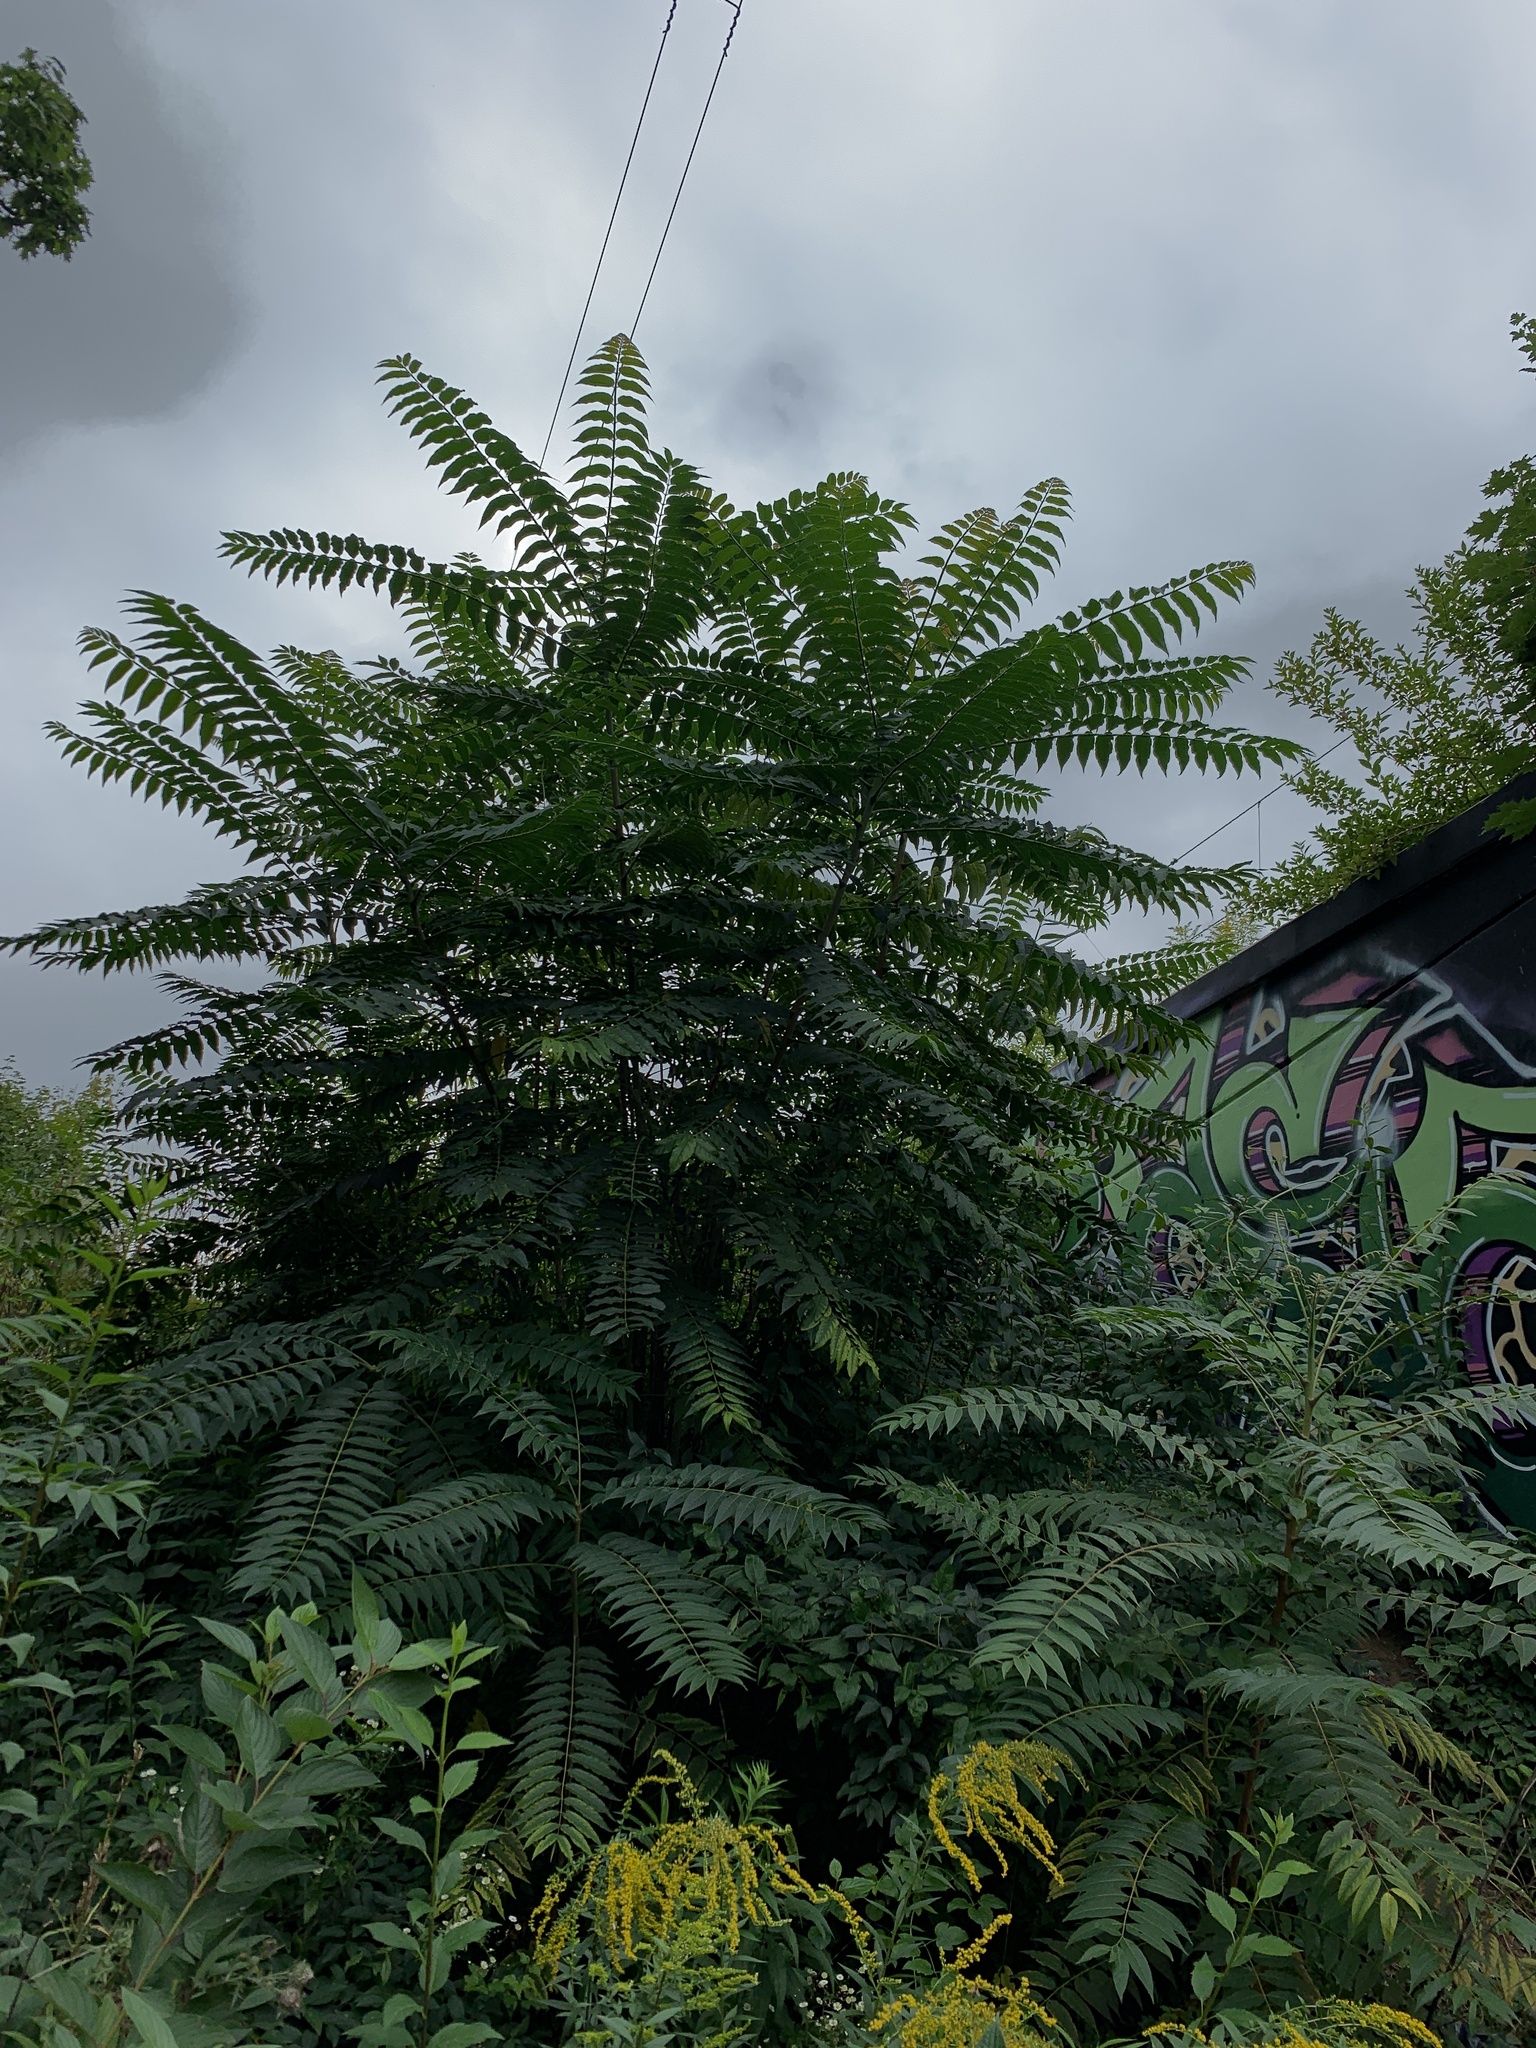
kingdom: Plantae
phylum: Tracheophyta
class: Magnoliopsida
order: Sapindales
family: Simaroubaceae
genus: Ailanthus
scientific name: Ailanthus altissima
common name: Tree-of-heaven
